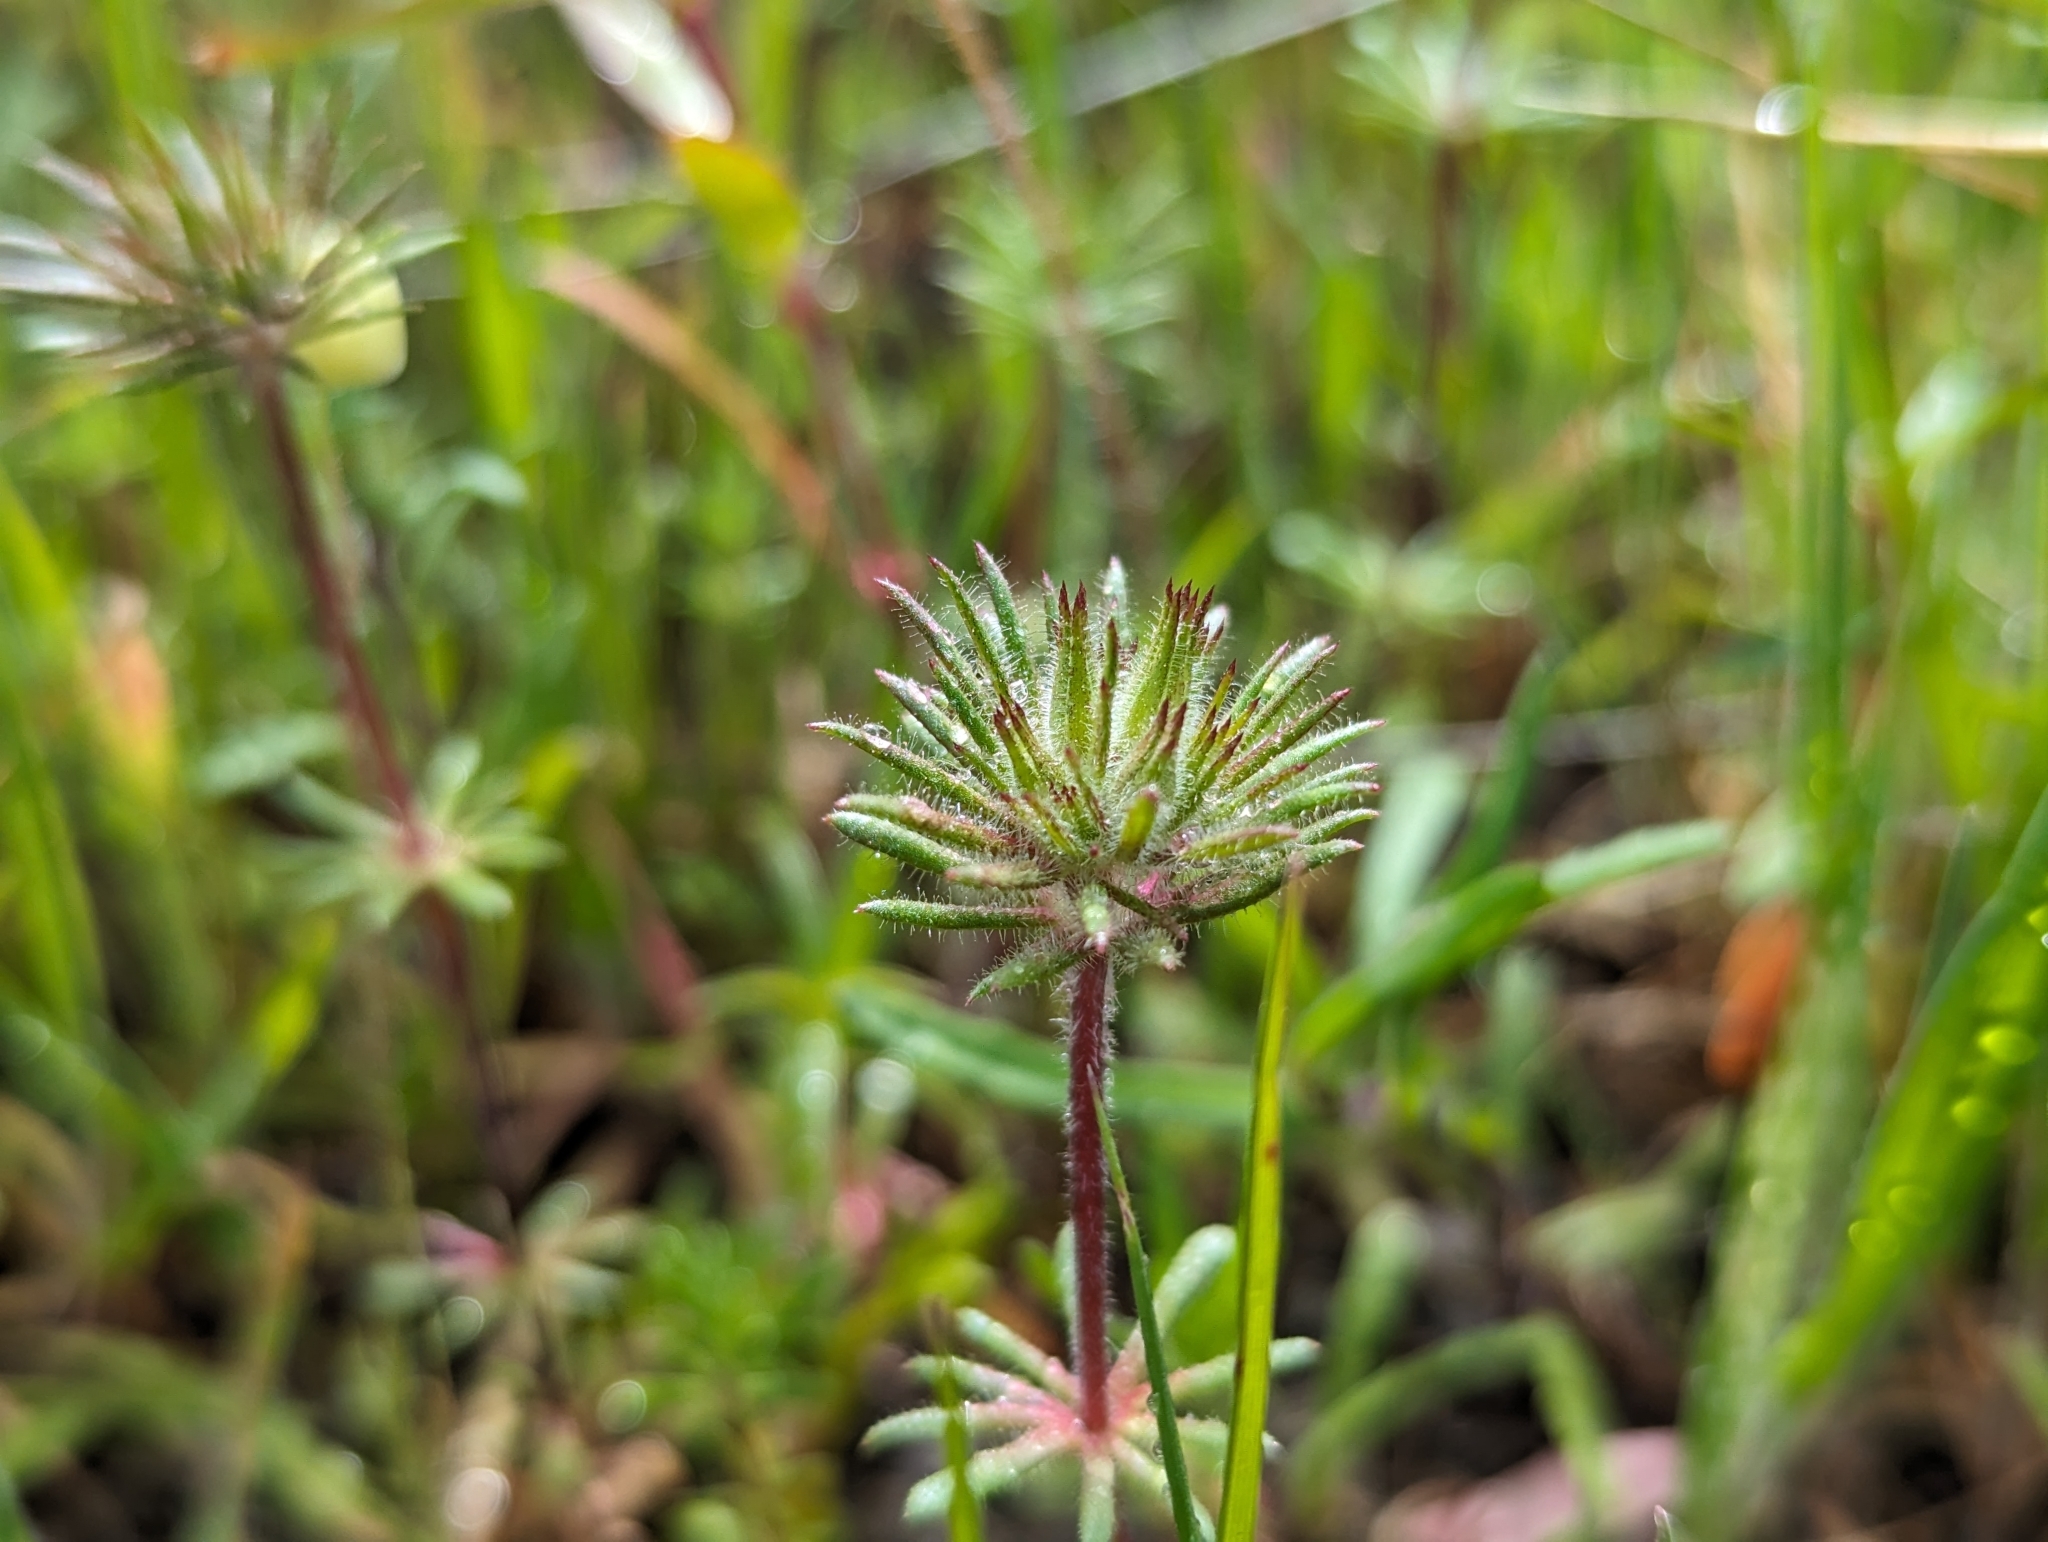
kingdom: Plantae
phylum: Tracheophyta
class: Magnoliopsida
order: Ericales
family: Polemoniaceae
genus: Leptosiphon
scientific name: Leptosiphon parviflorus
